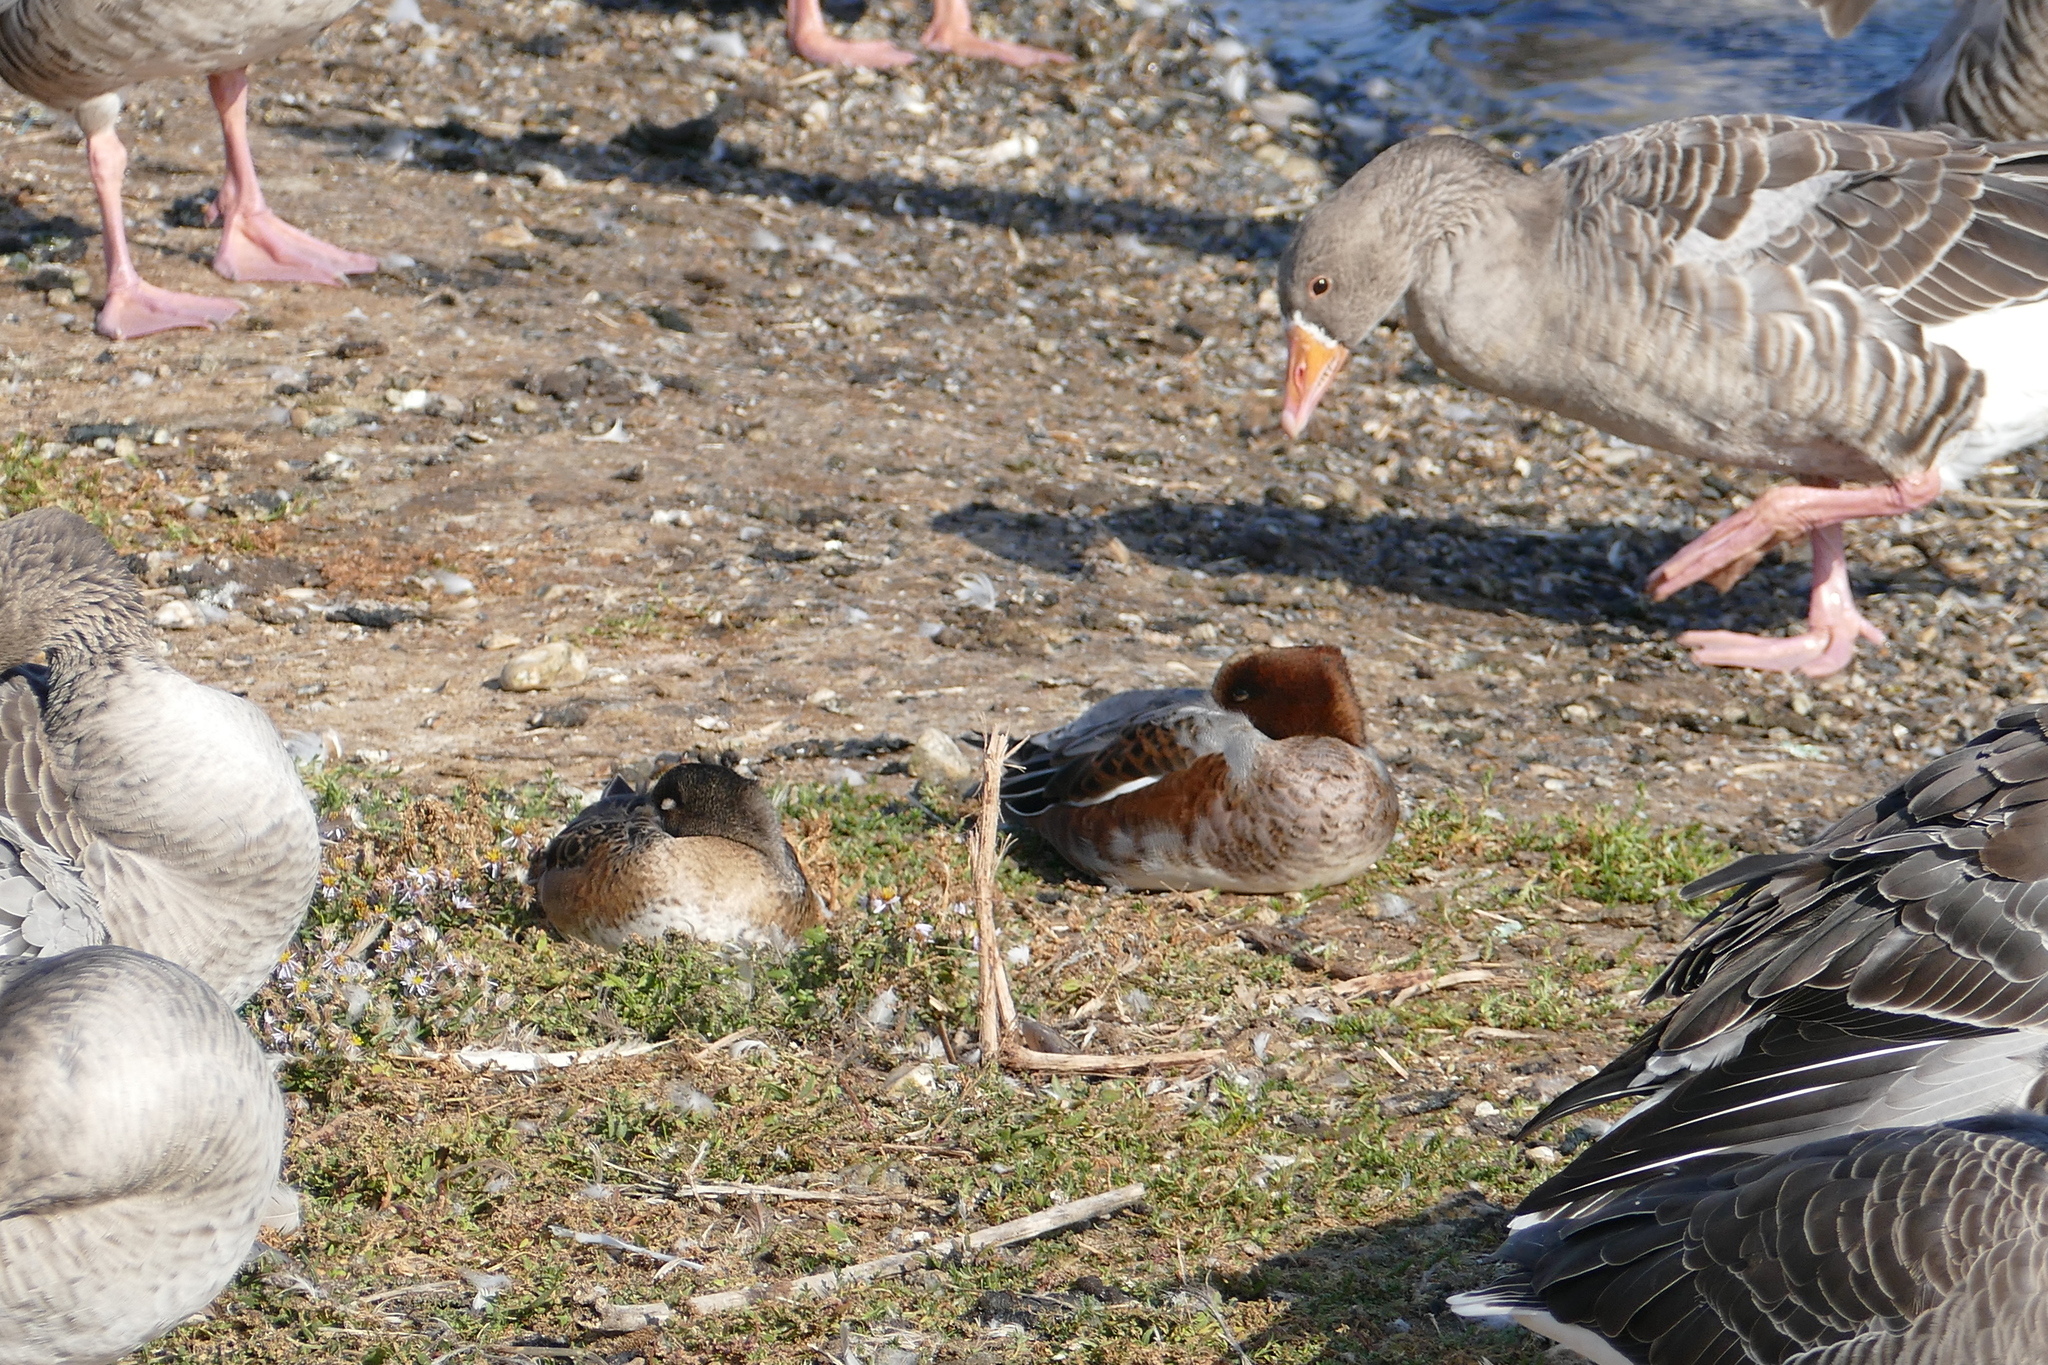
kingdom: Animalia
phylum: Chordata
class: Aves
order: Anseriformes
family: Anatidae
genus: Anser
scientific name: Anser anser
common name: Greylag goose
